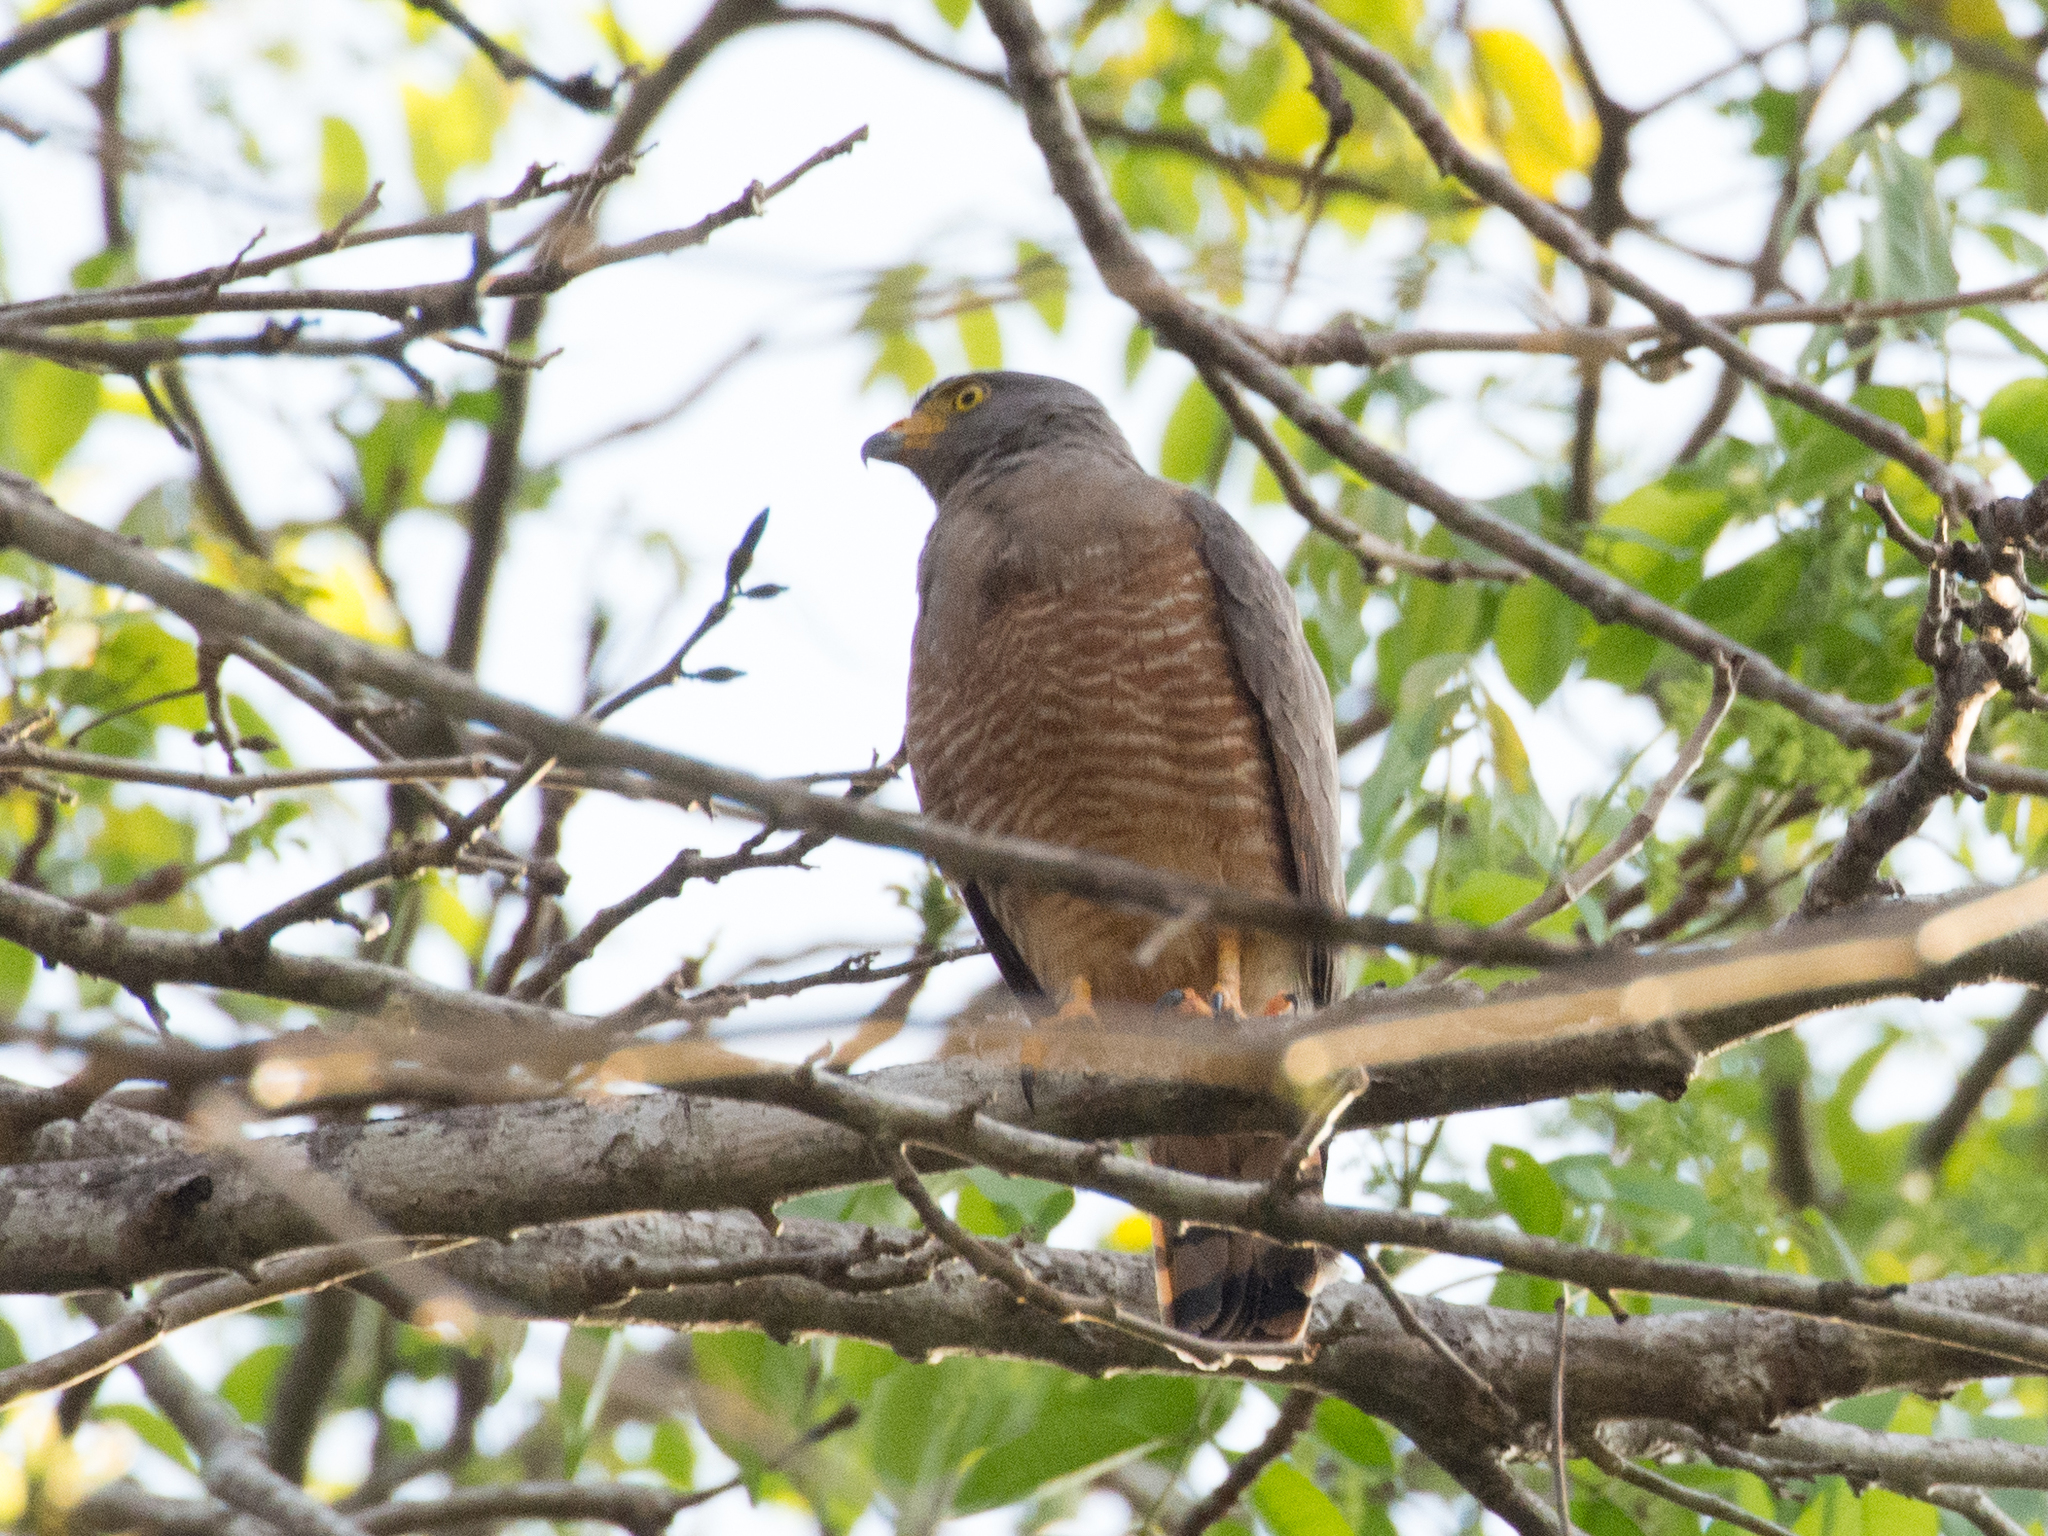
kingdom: Animalia
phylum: Chordata
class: Aves
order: Accipitriformes
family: Accipitridae
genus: Rupornis
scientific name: Rupornis magnirostris
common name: Roadside hawk
